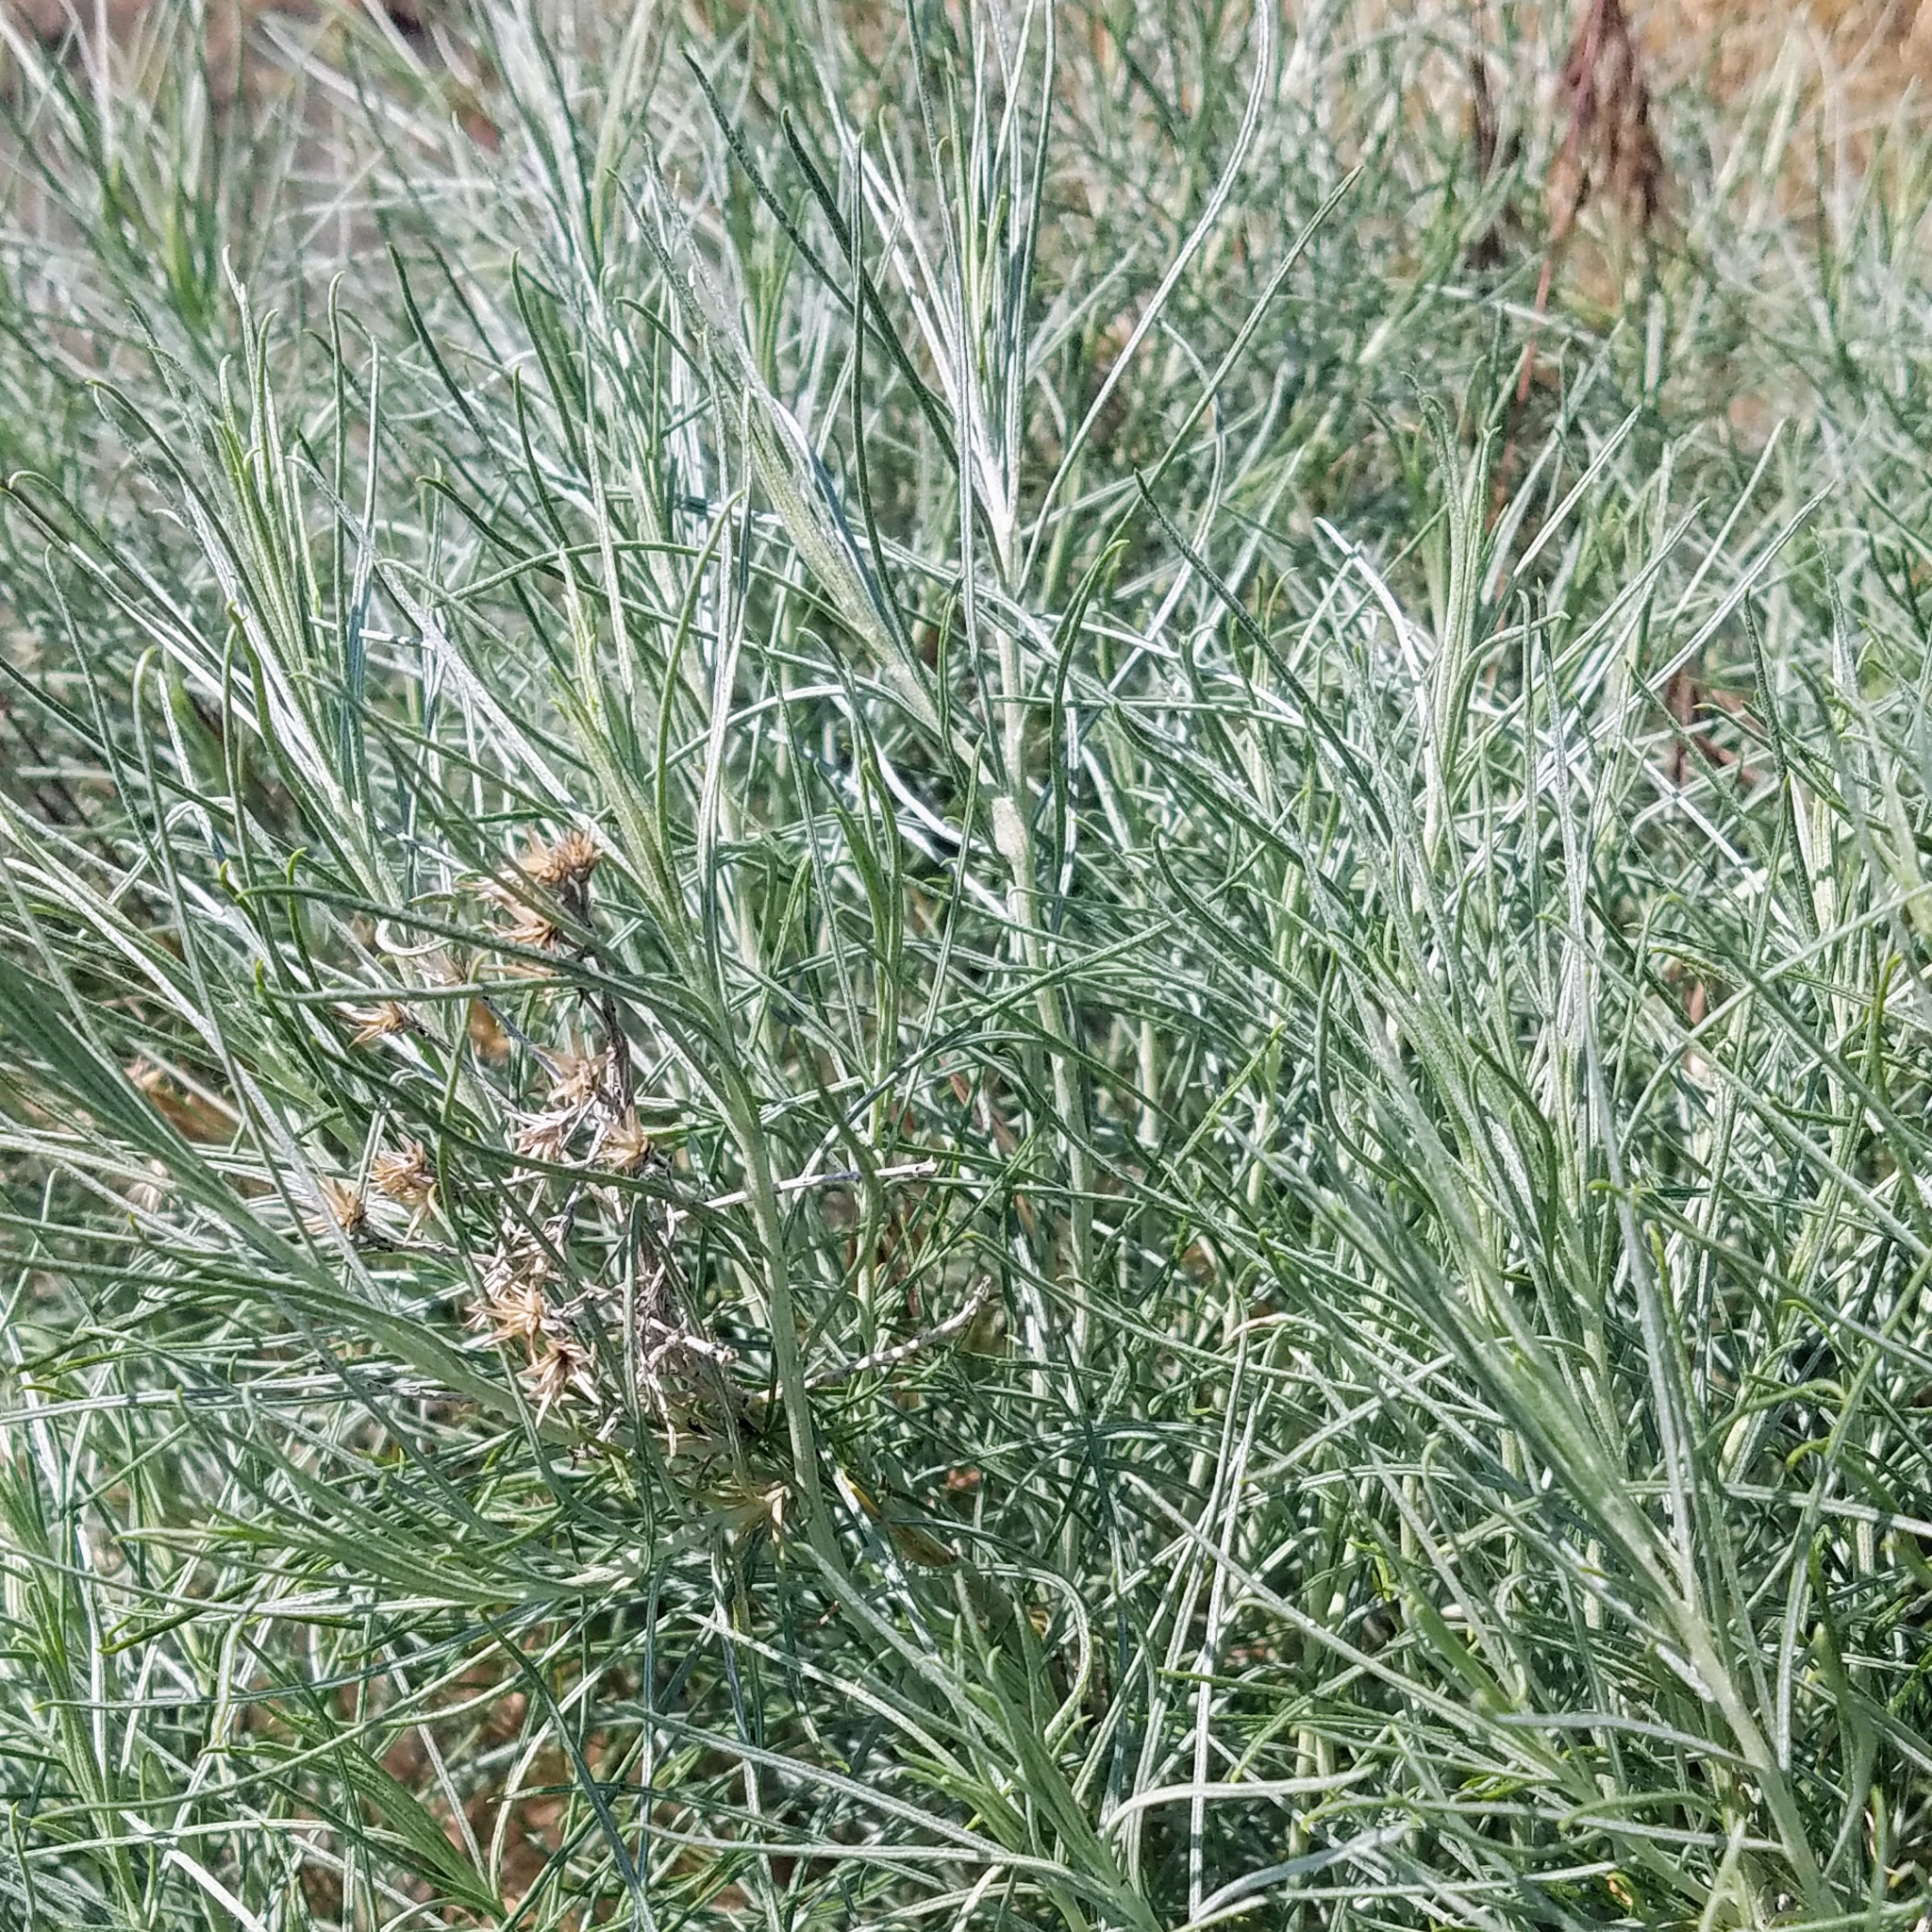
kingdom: Plantae
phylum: Tracheophyta
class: Magnoliopsida
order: Asterales
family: Asteraceae
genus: Ericameria
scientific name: Ericameria nauseosa
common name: Rubber rabbitbrush
